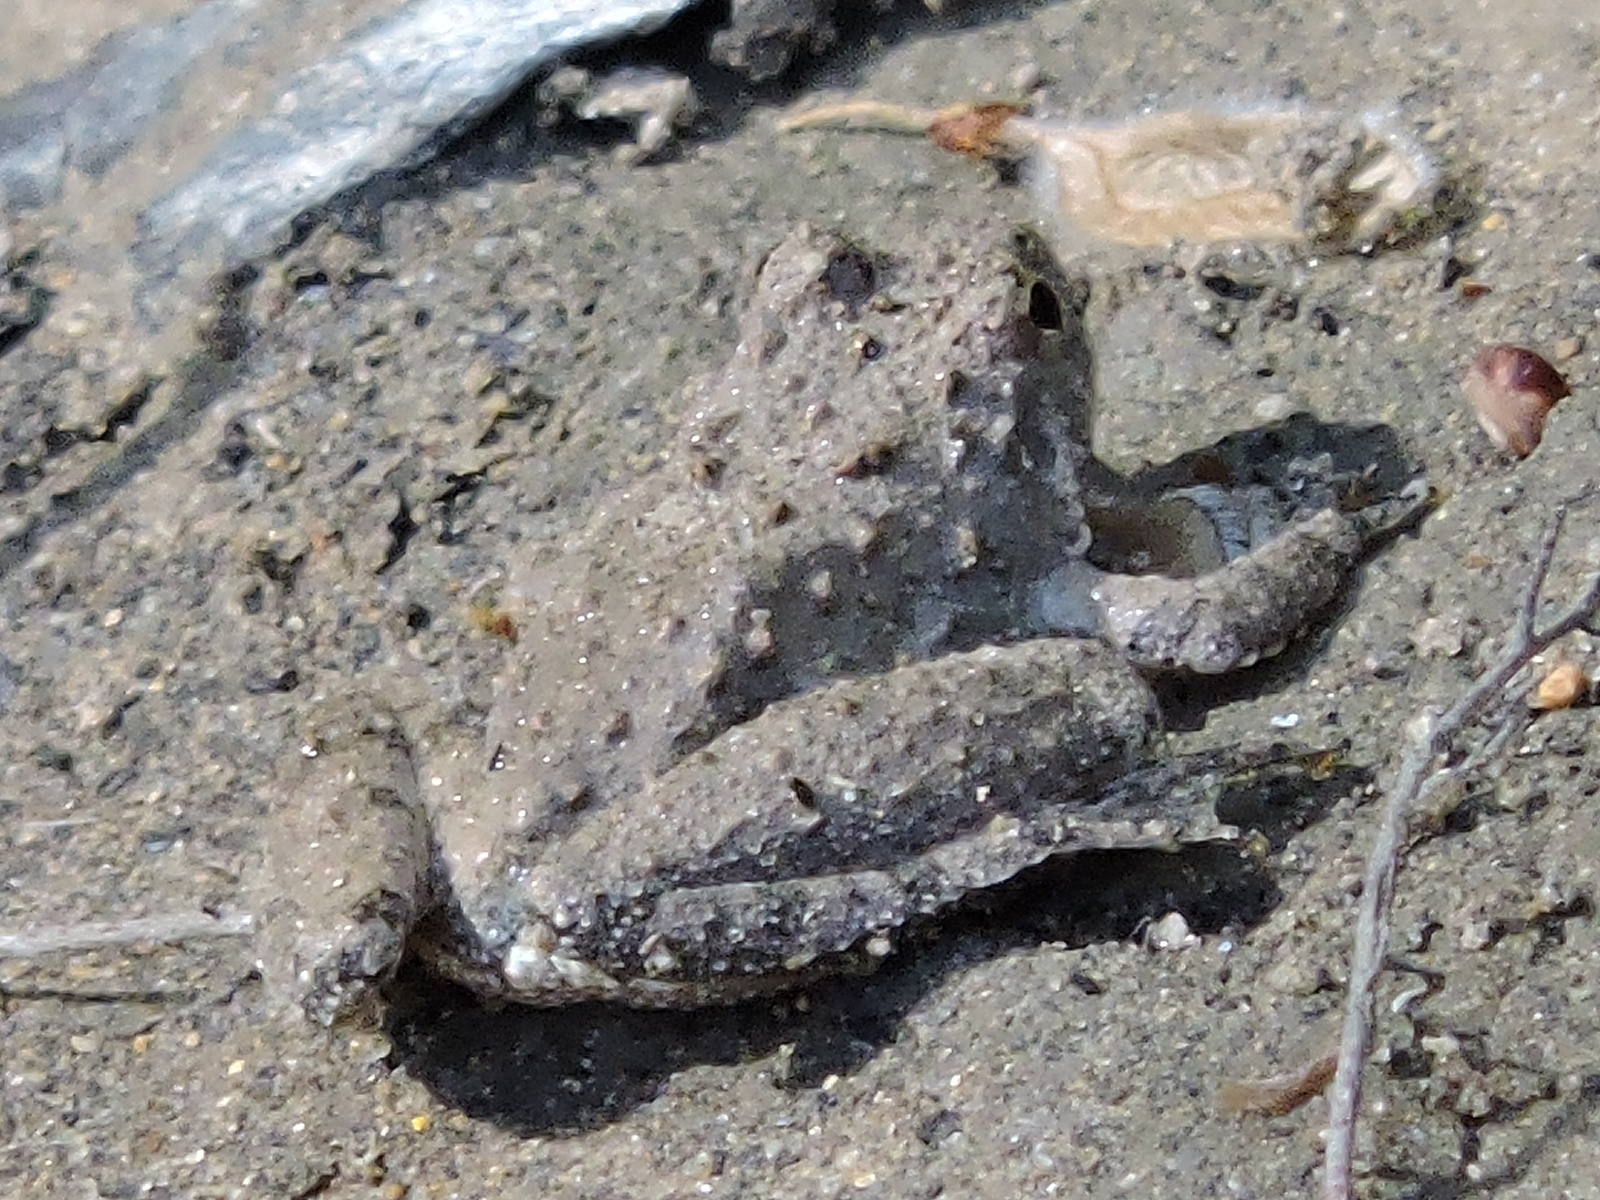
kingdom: Animalia
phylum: Chordata
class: Amphibia
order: Anura
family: Hylidae
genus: Acris
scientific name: Acris blanchardi
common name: Blanchard's cricket frog
